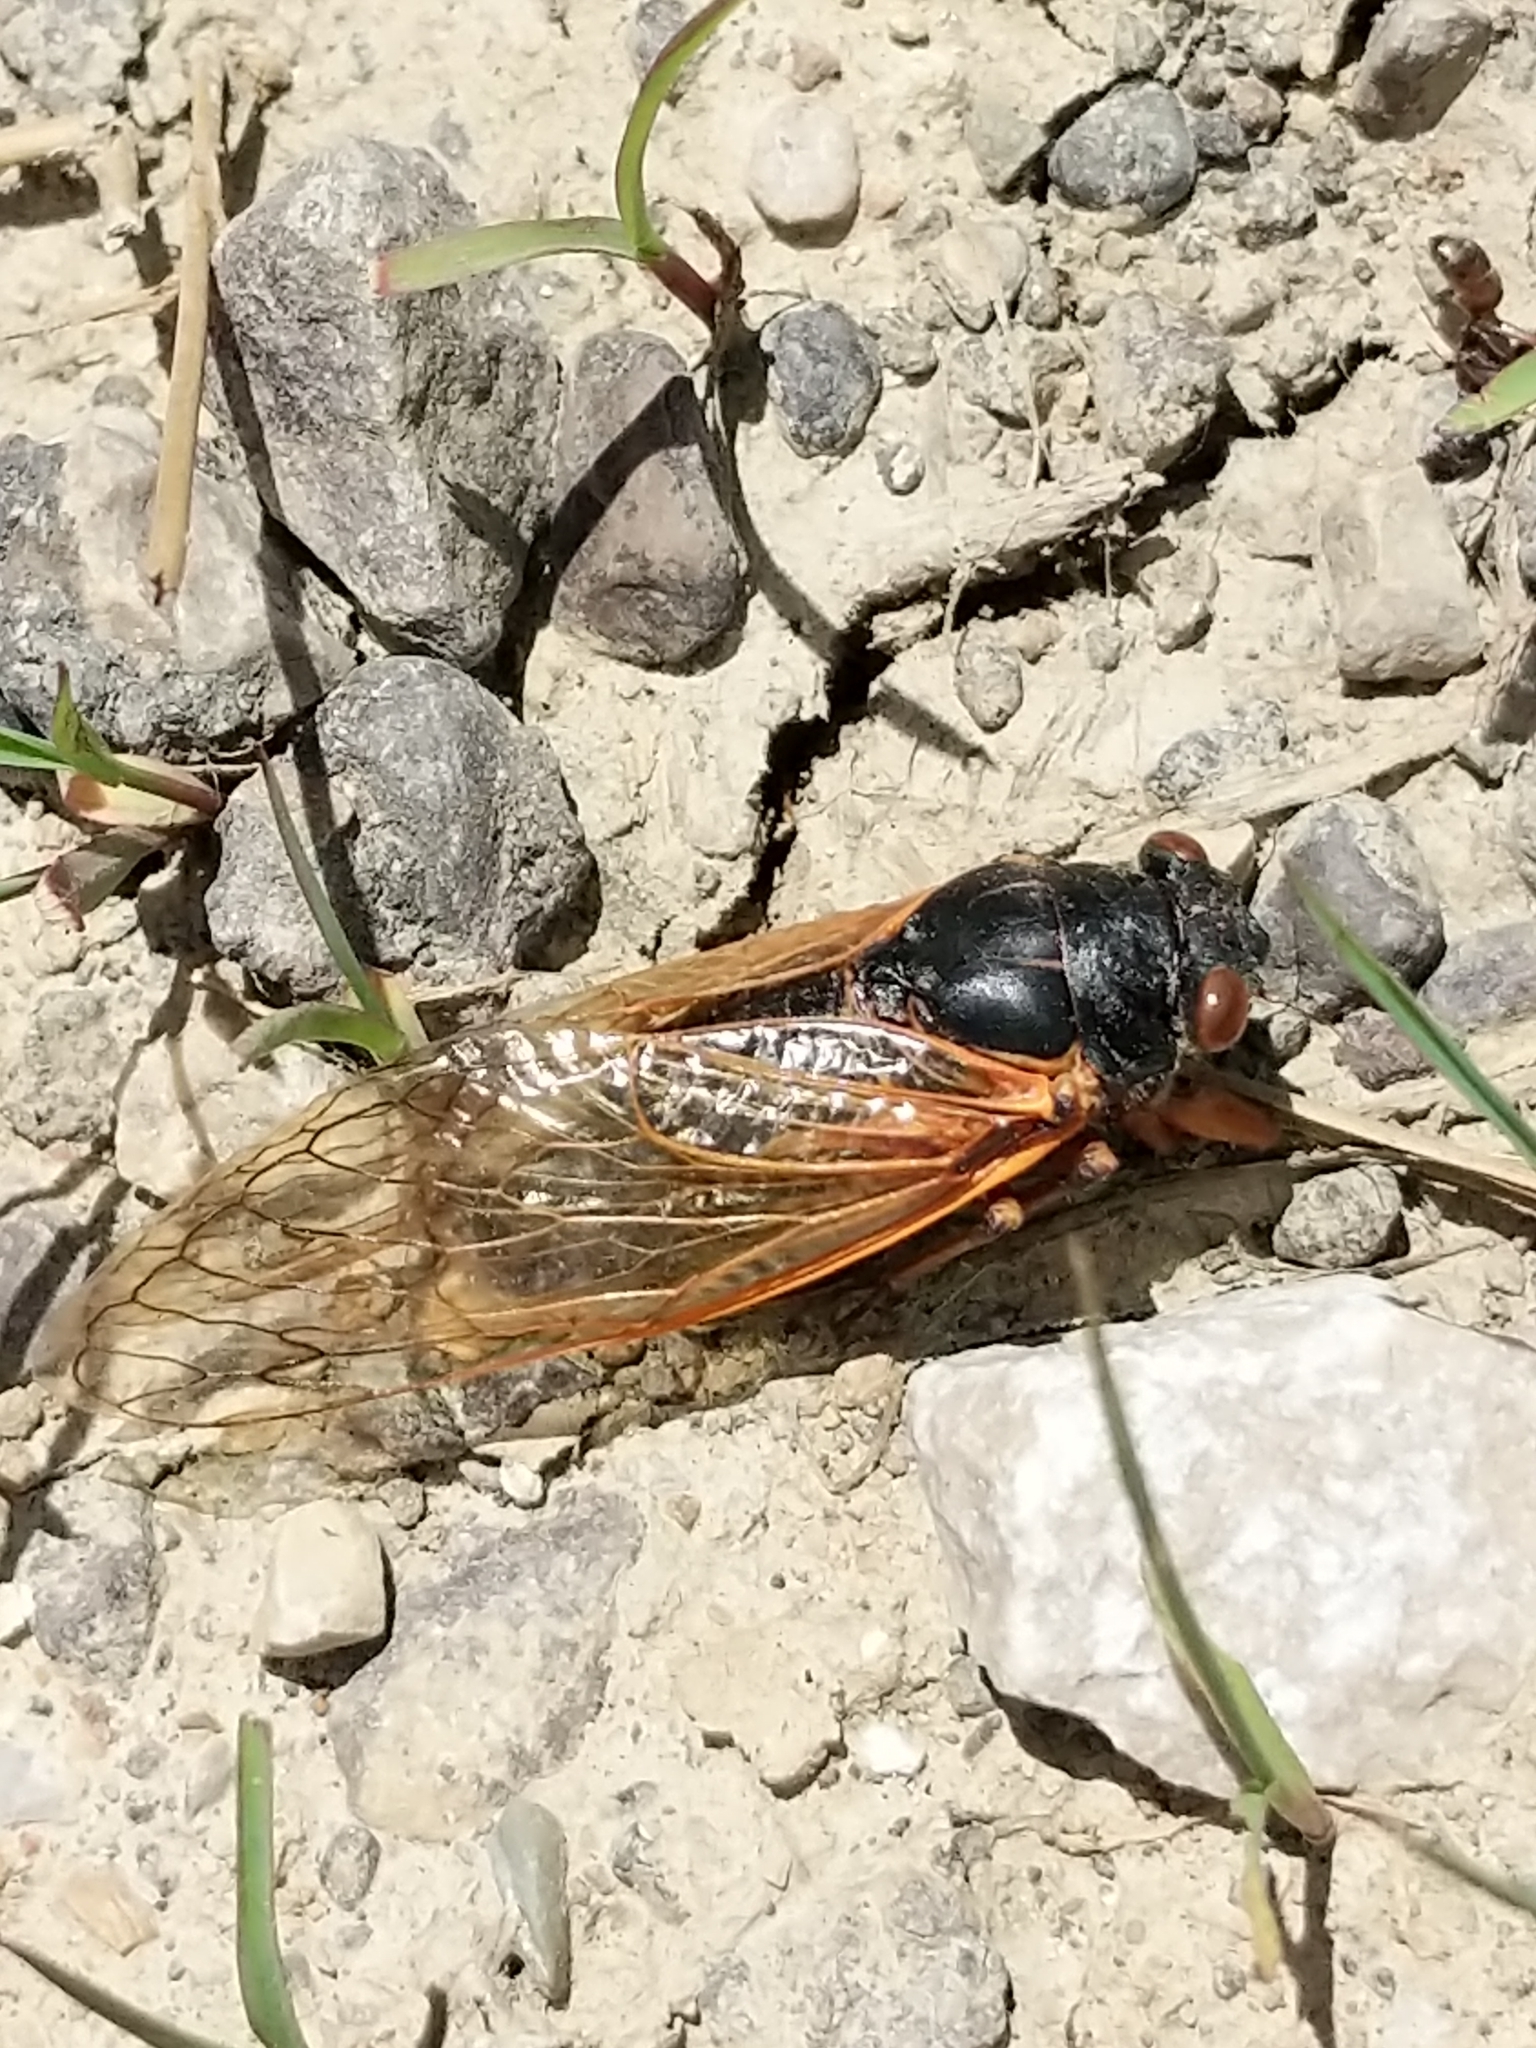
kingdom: Animalia
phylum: Arthropoda
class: Insecta
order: Hemiptera
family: Cicadidae
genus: Magicicada
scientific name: Magicicada
